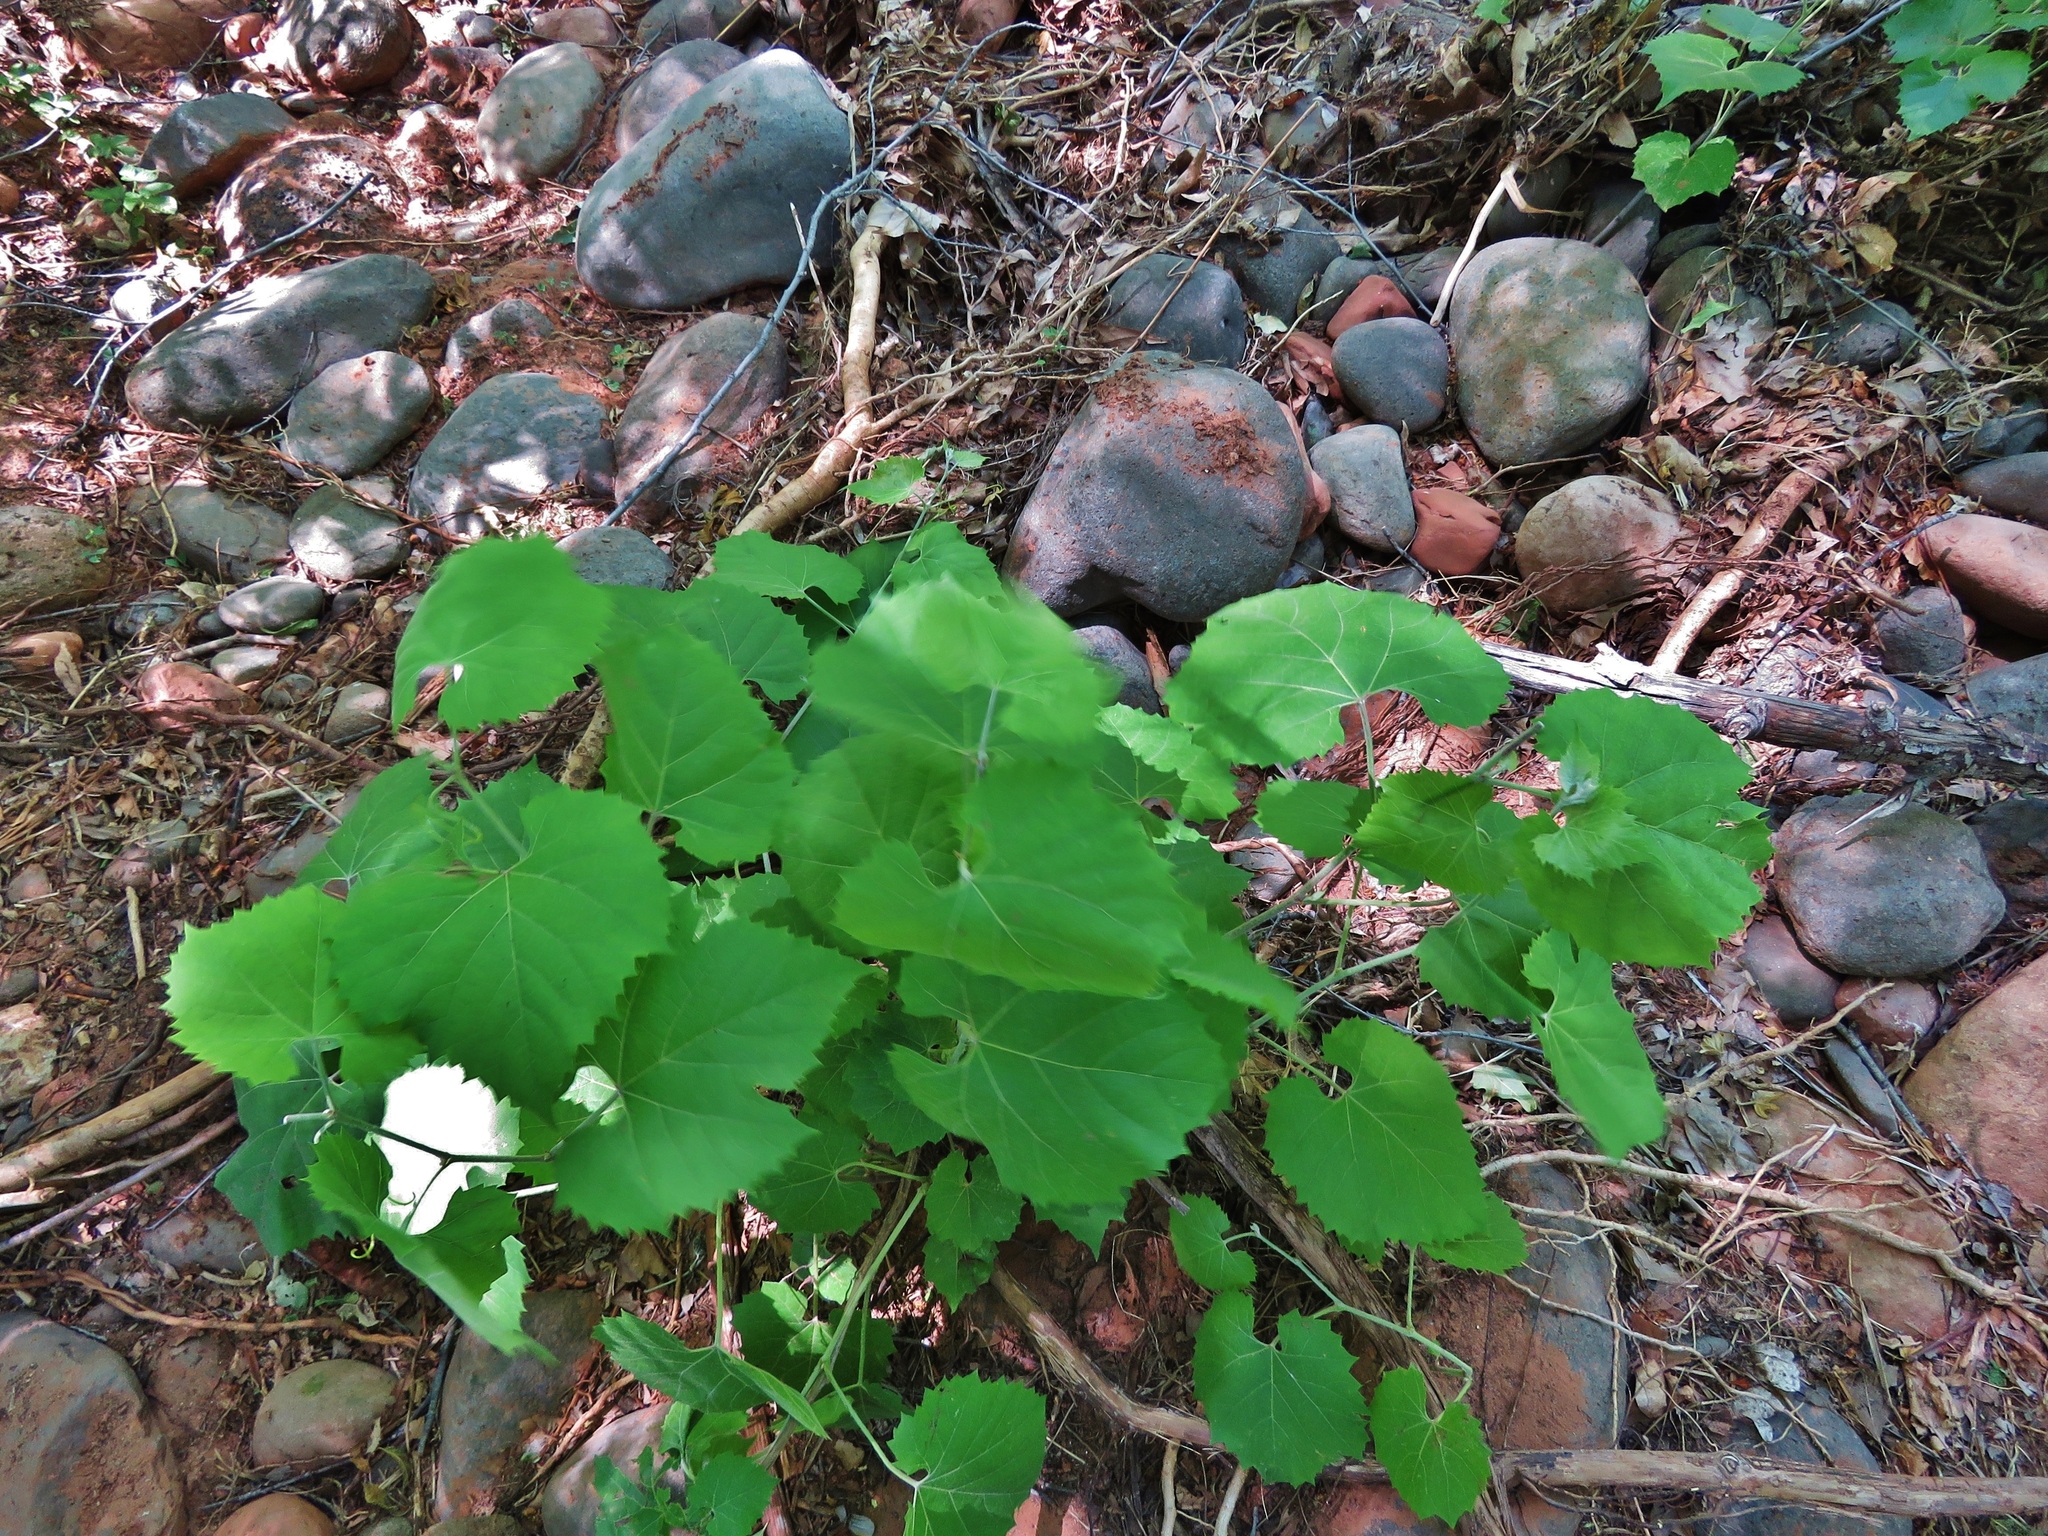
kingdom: Plantae
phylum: Tracheophyta
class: Magnoliopsida
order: Vitales
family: Vitaceae
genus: Vitis
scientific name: Vitis arizonica
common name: Canyon grape
